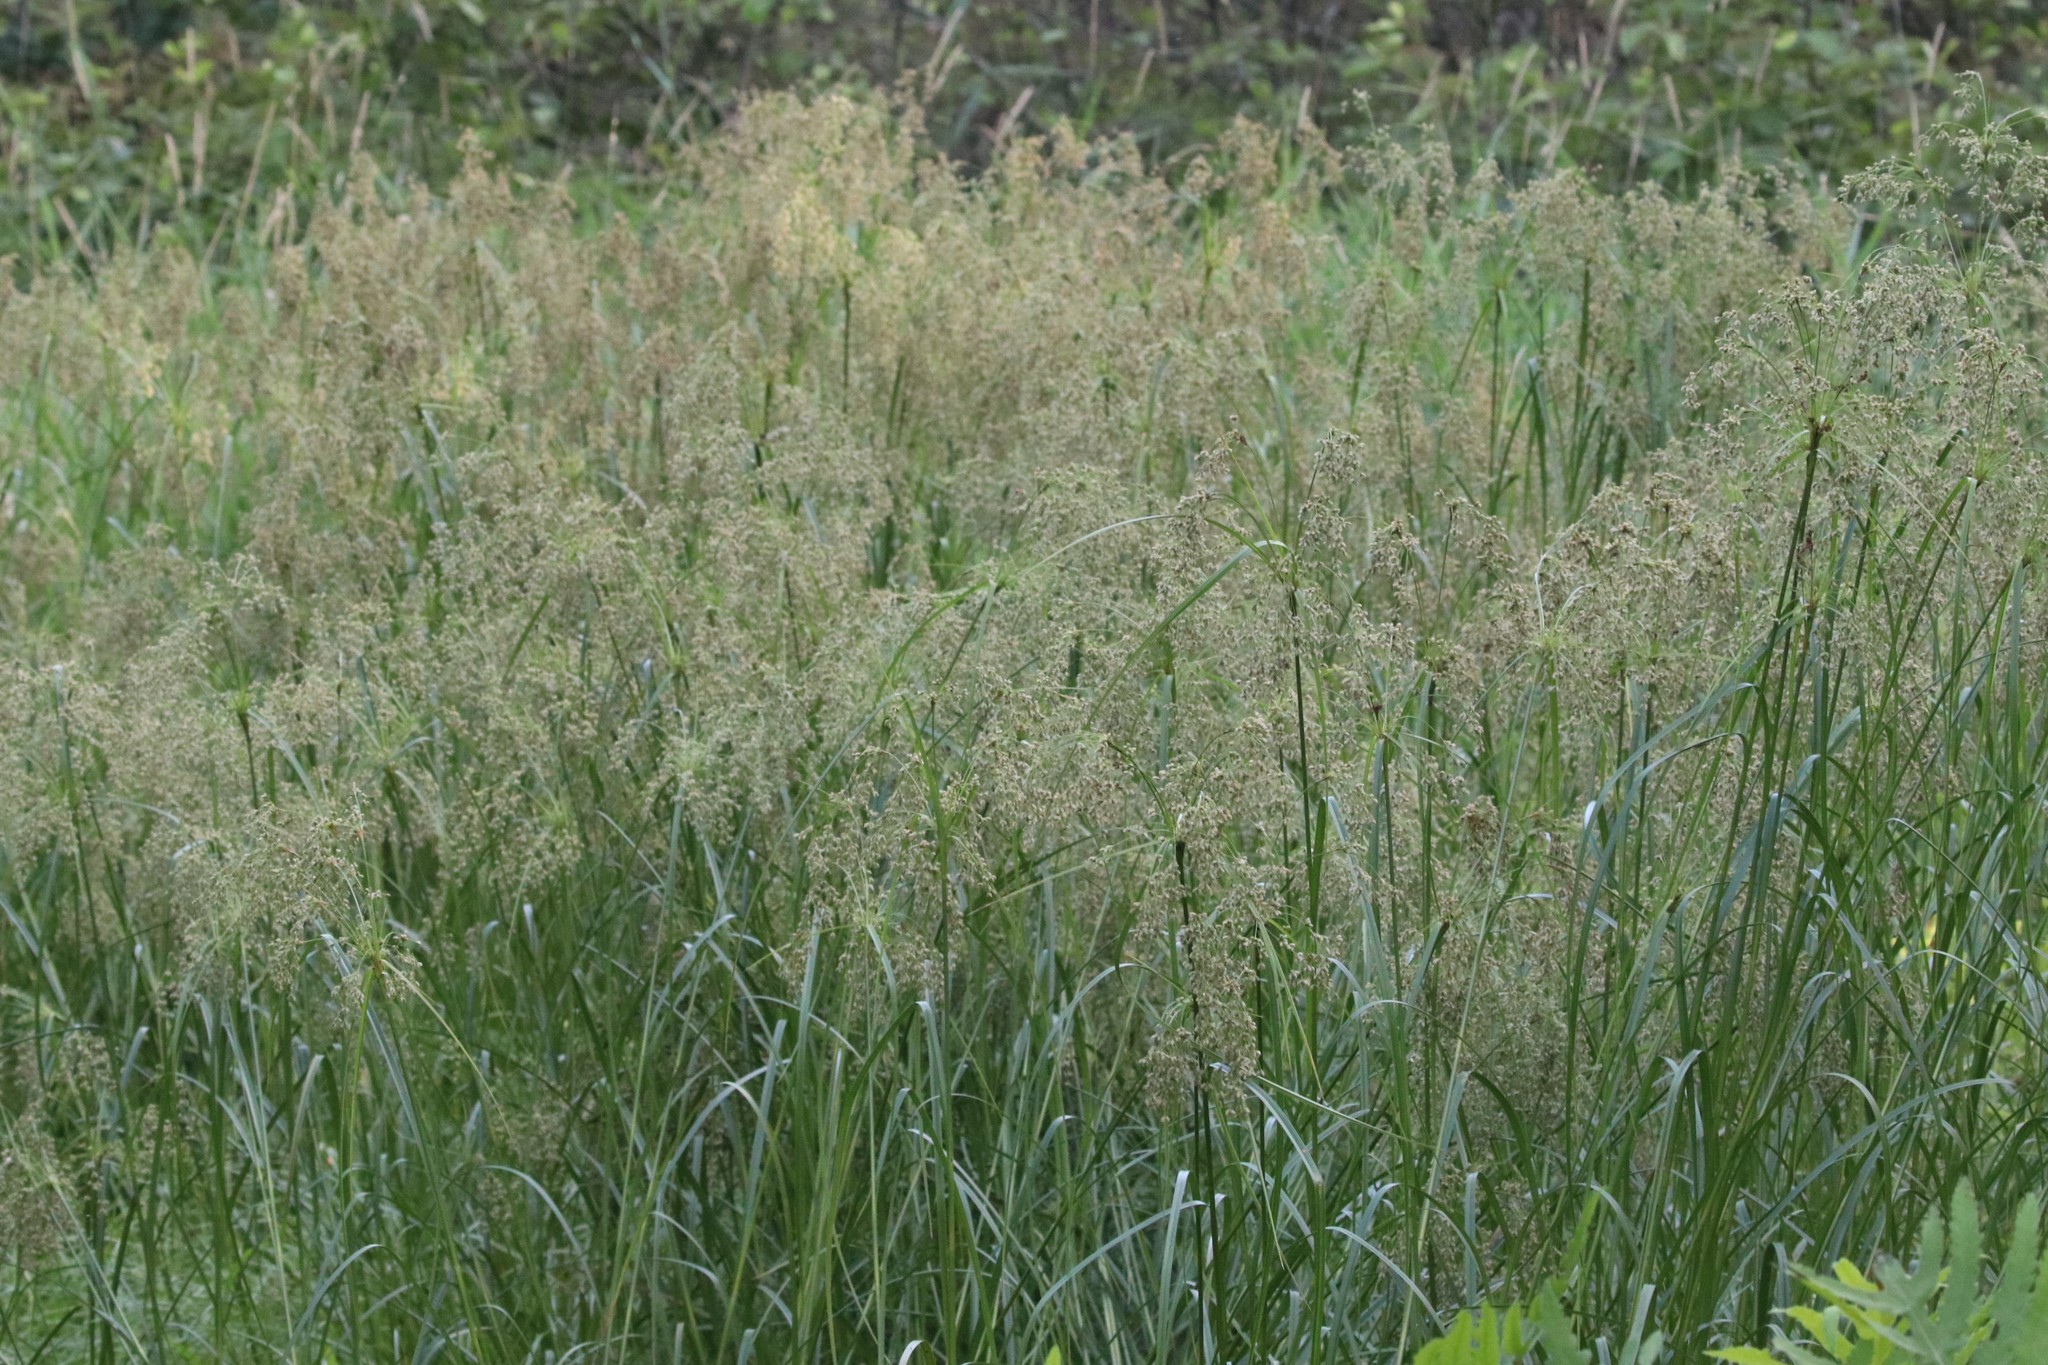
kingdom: Plantae
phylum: Tracheophyta
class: Liliopsida
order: Poales
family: Cyperaceae
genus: Scirpus
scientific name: Scirpus cyperinus
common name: Black-sheathed bulrush
